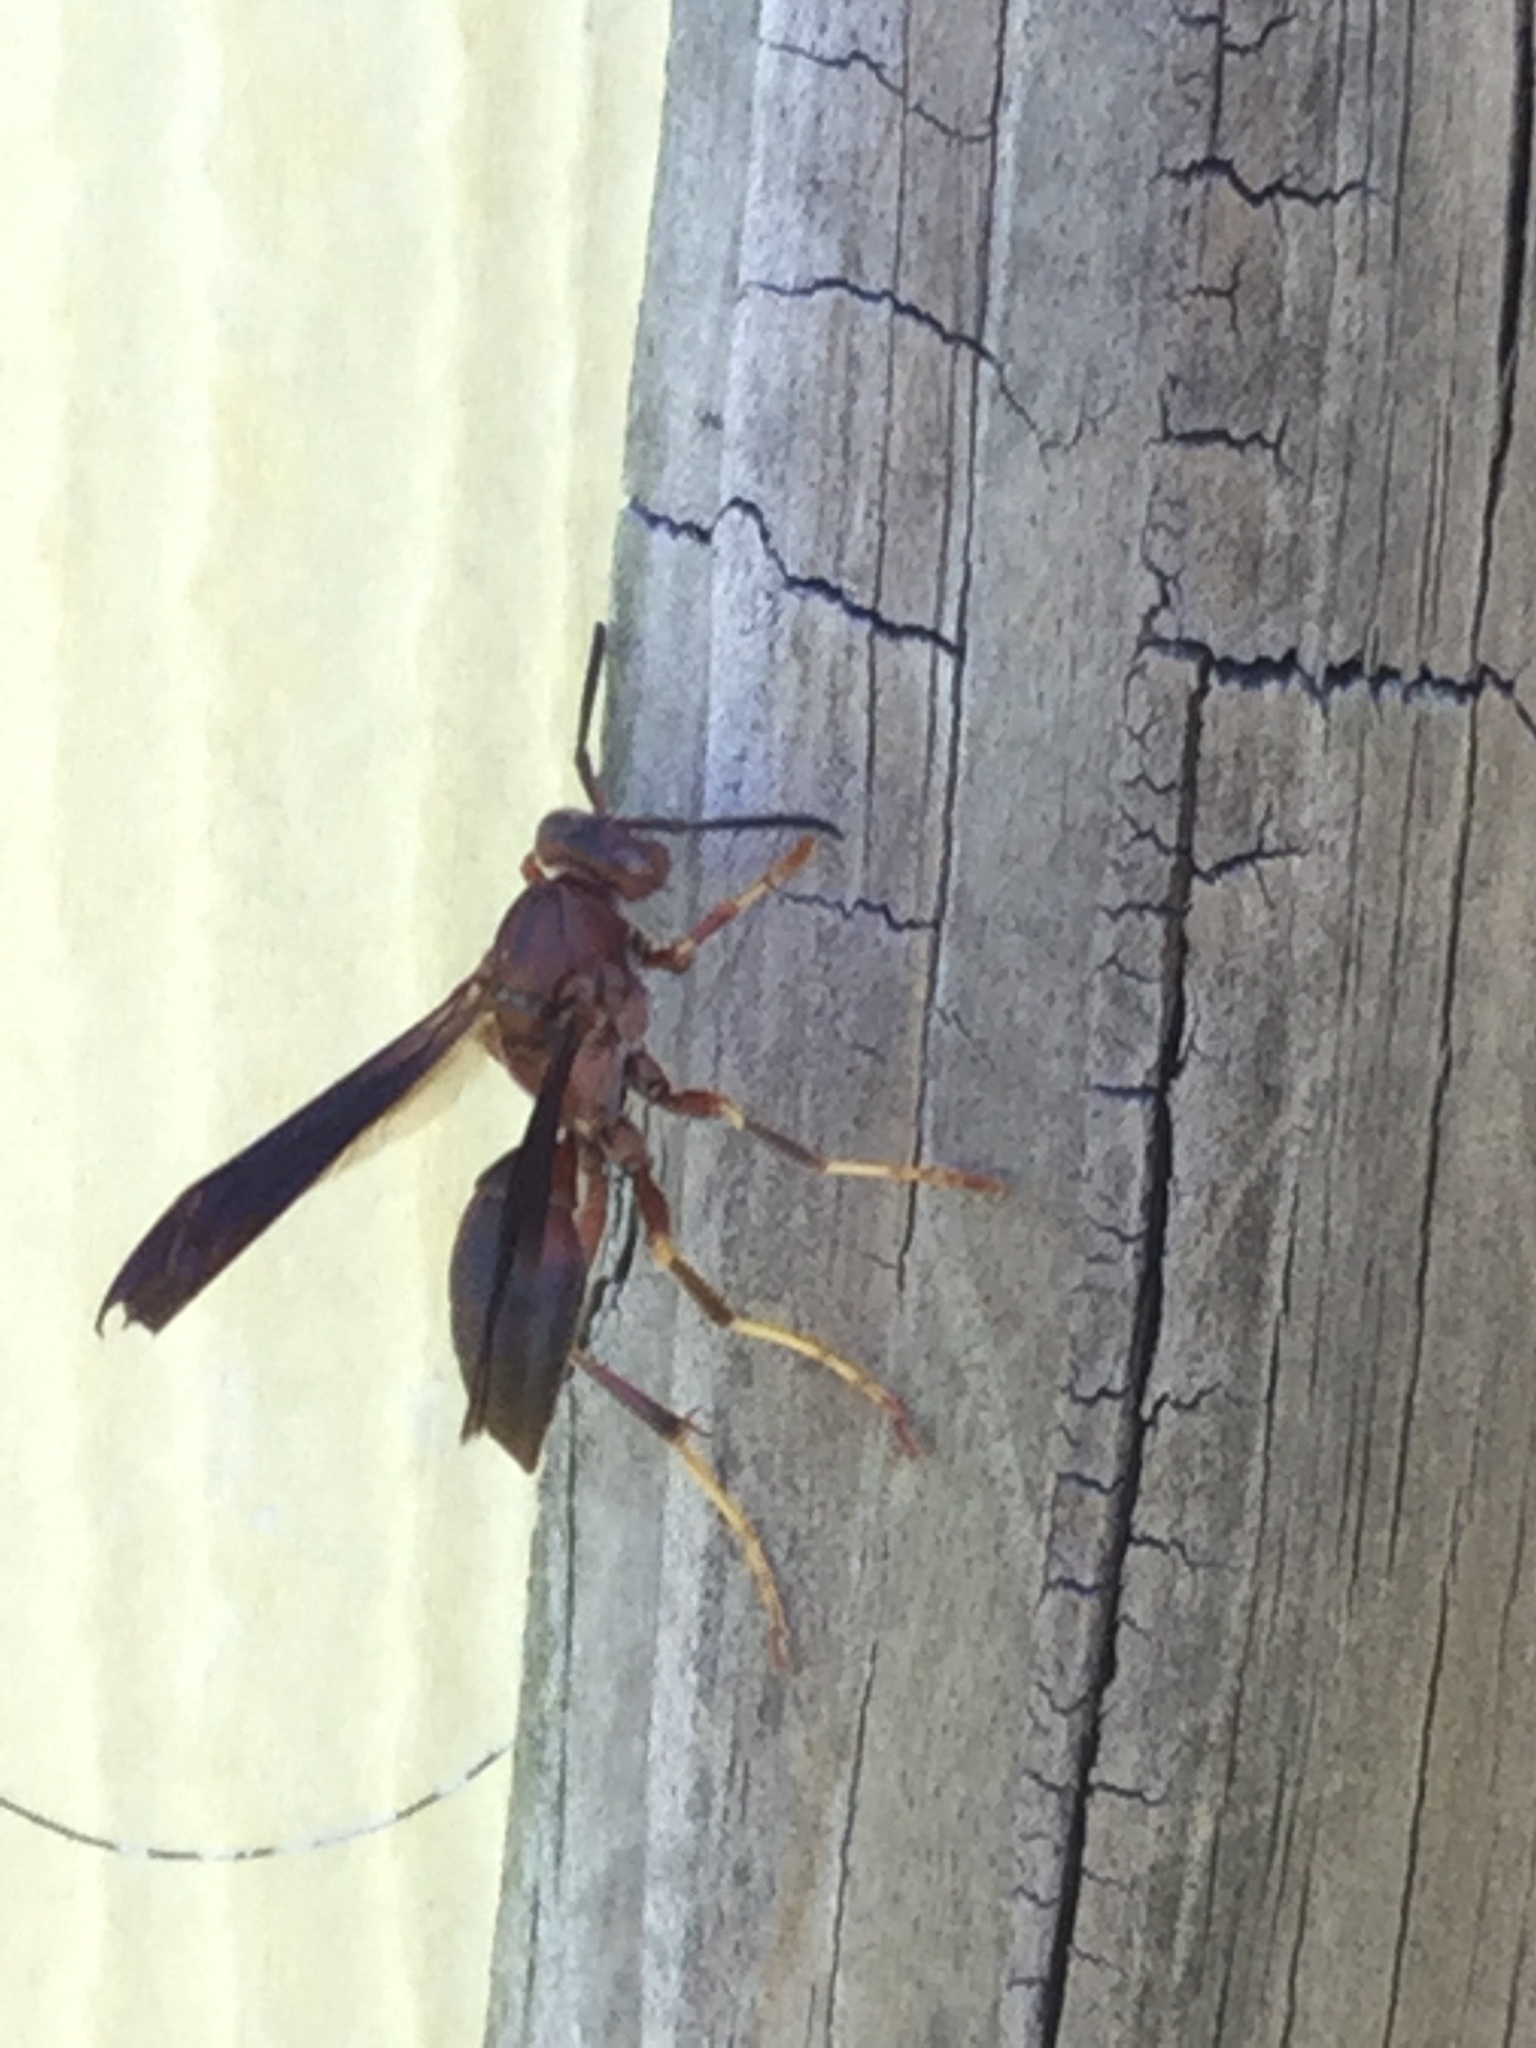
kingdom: Animalia
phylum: Arthropoda
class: Insecta
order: Hymenoptera
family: Eumenidae
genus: Polistes
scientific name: Polistes metricus
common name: Metric paper wasp
